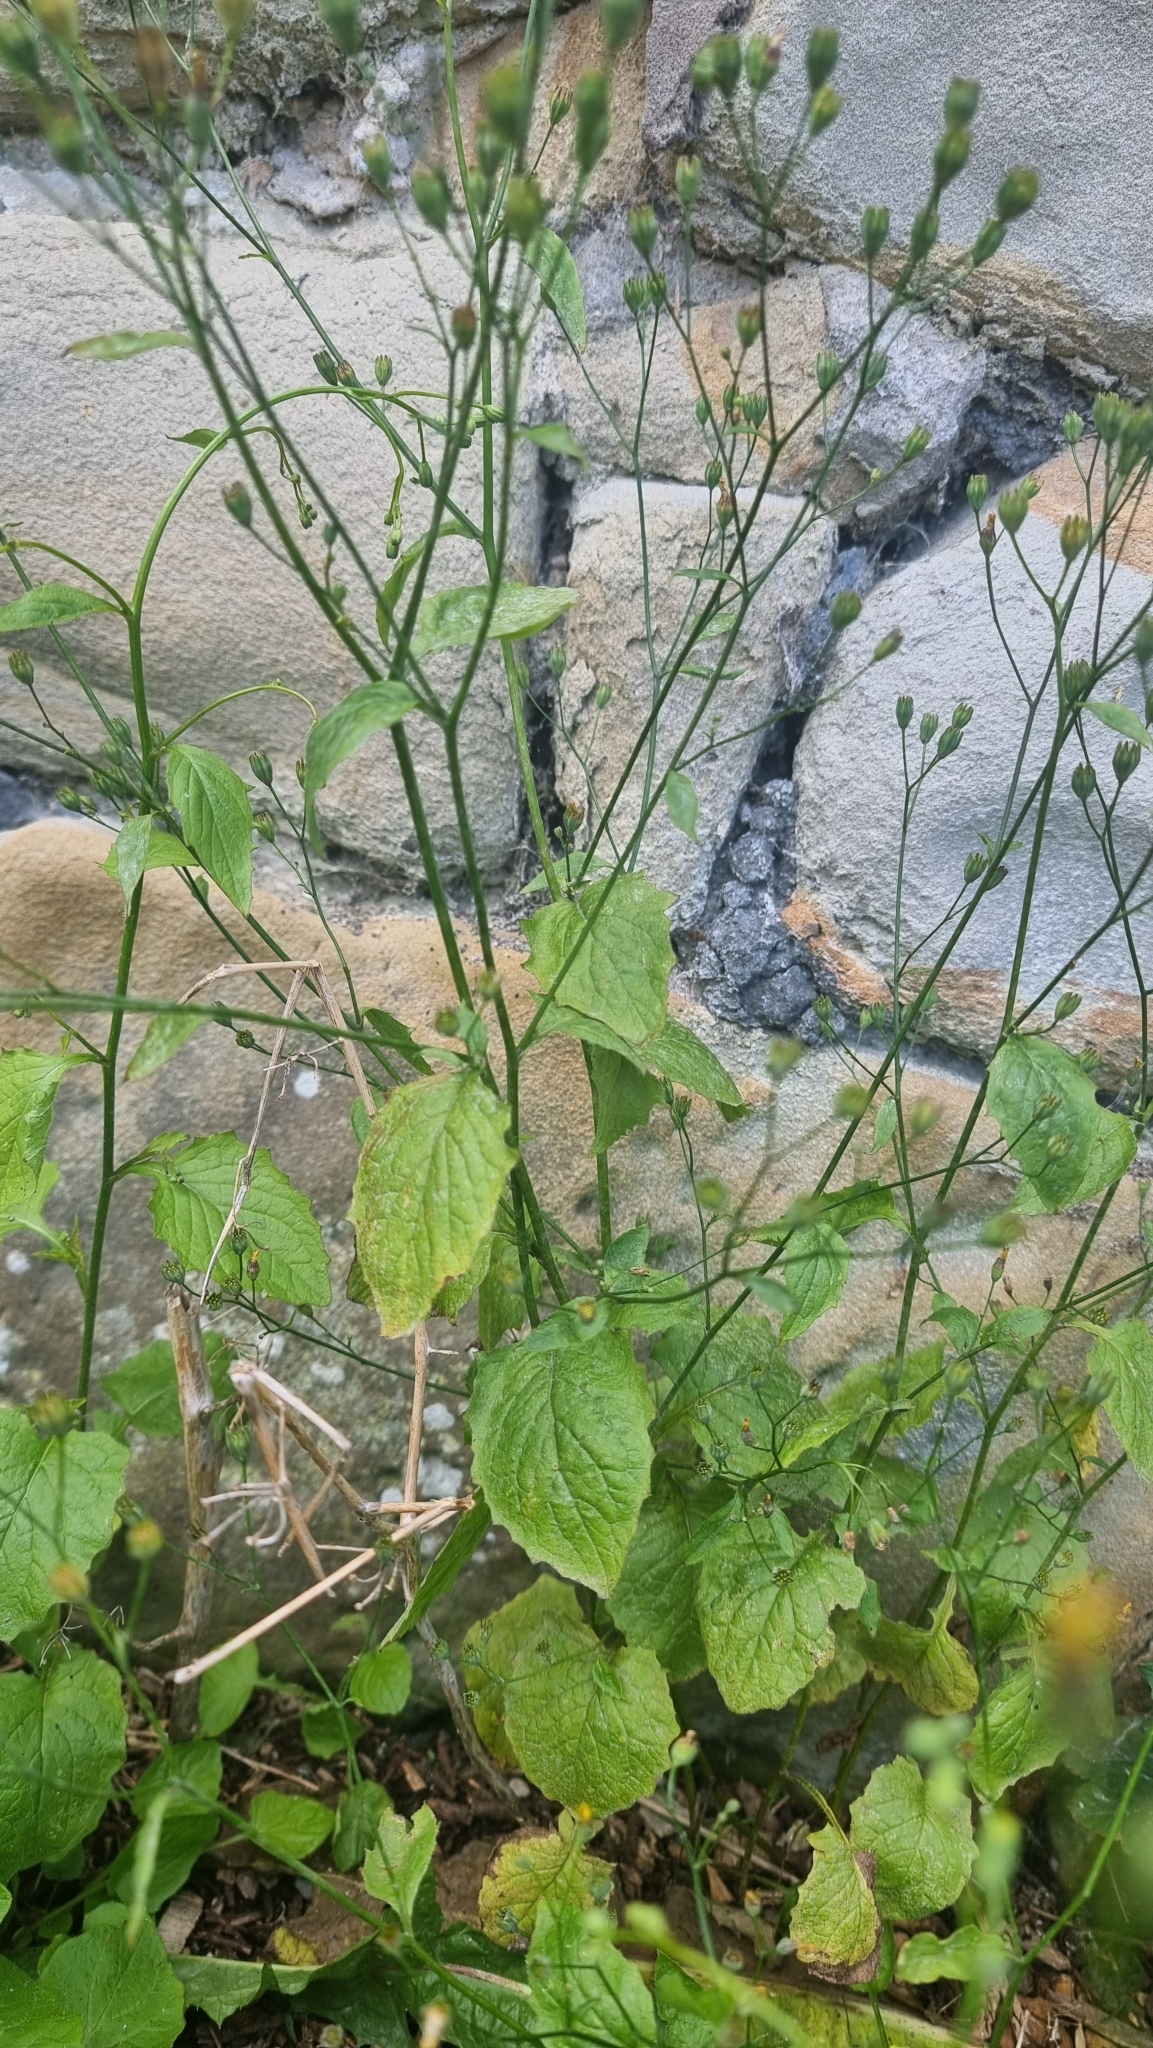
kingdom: Plantae
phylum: Tracheophyta
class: Magnoliopsida
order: Asterales
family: Asteraceae
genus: Lapsana
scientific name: Lapsana communis
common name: Nipplewort
